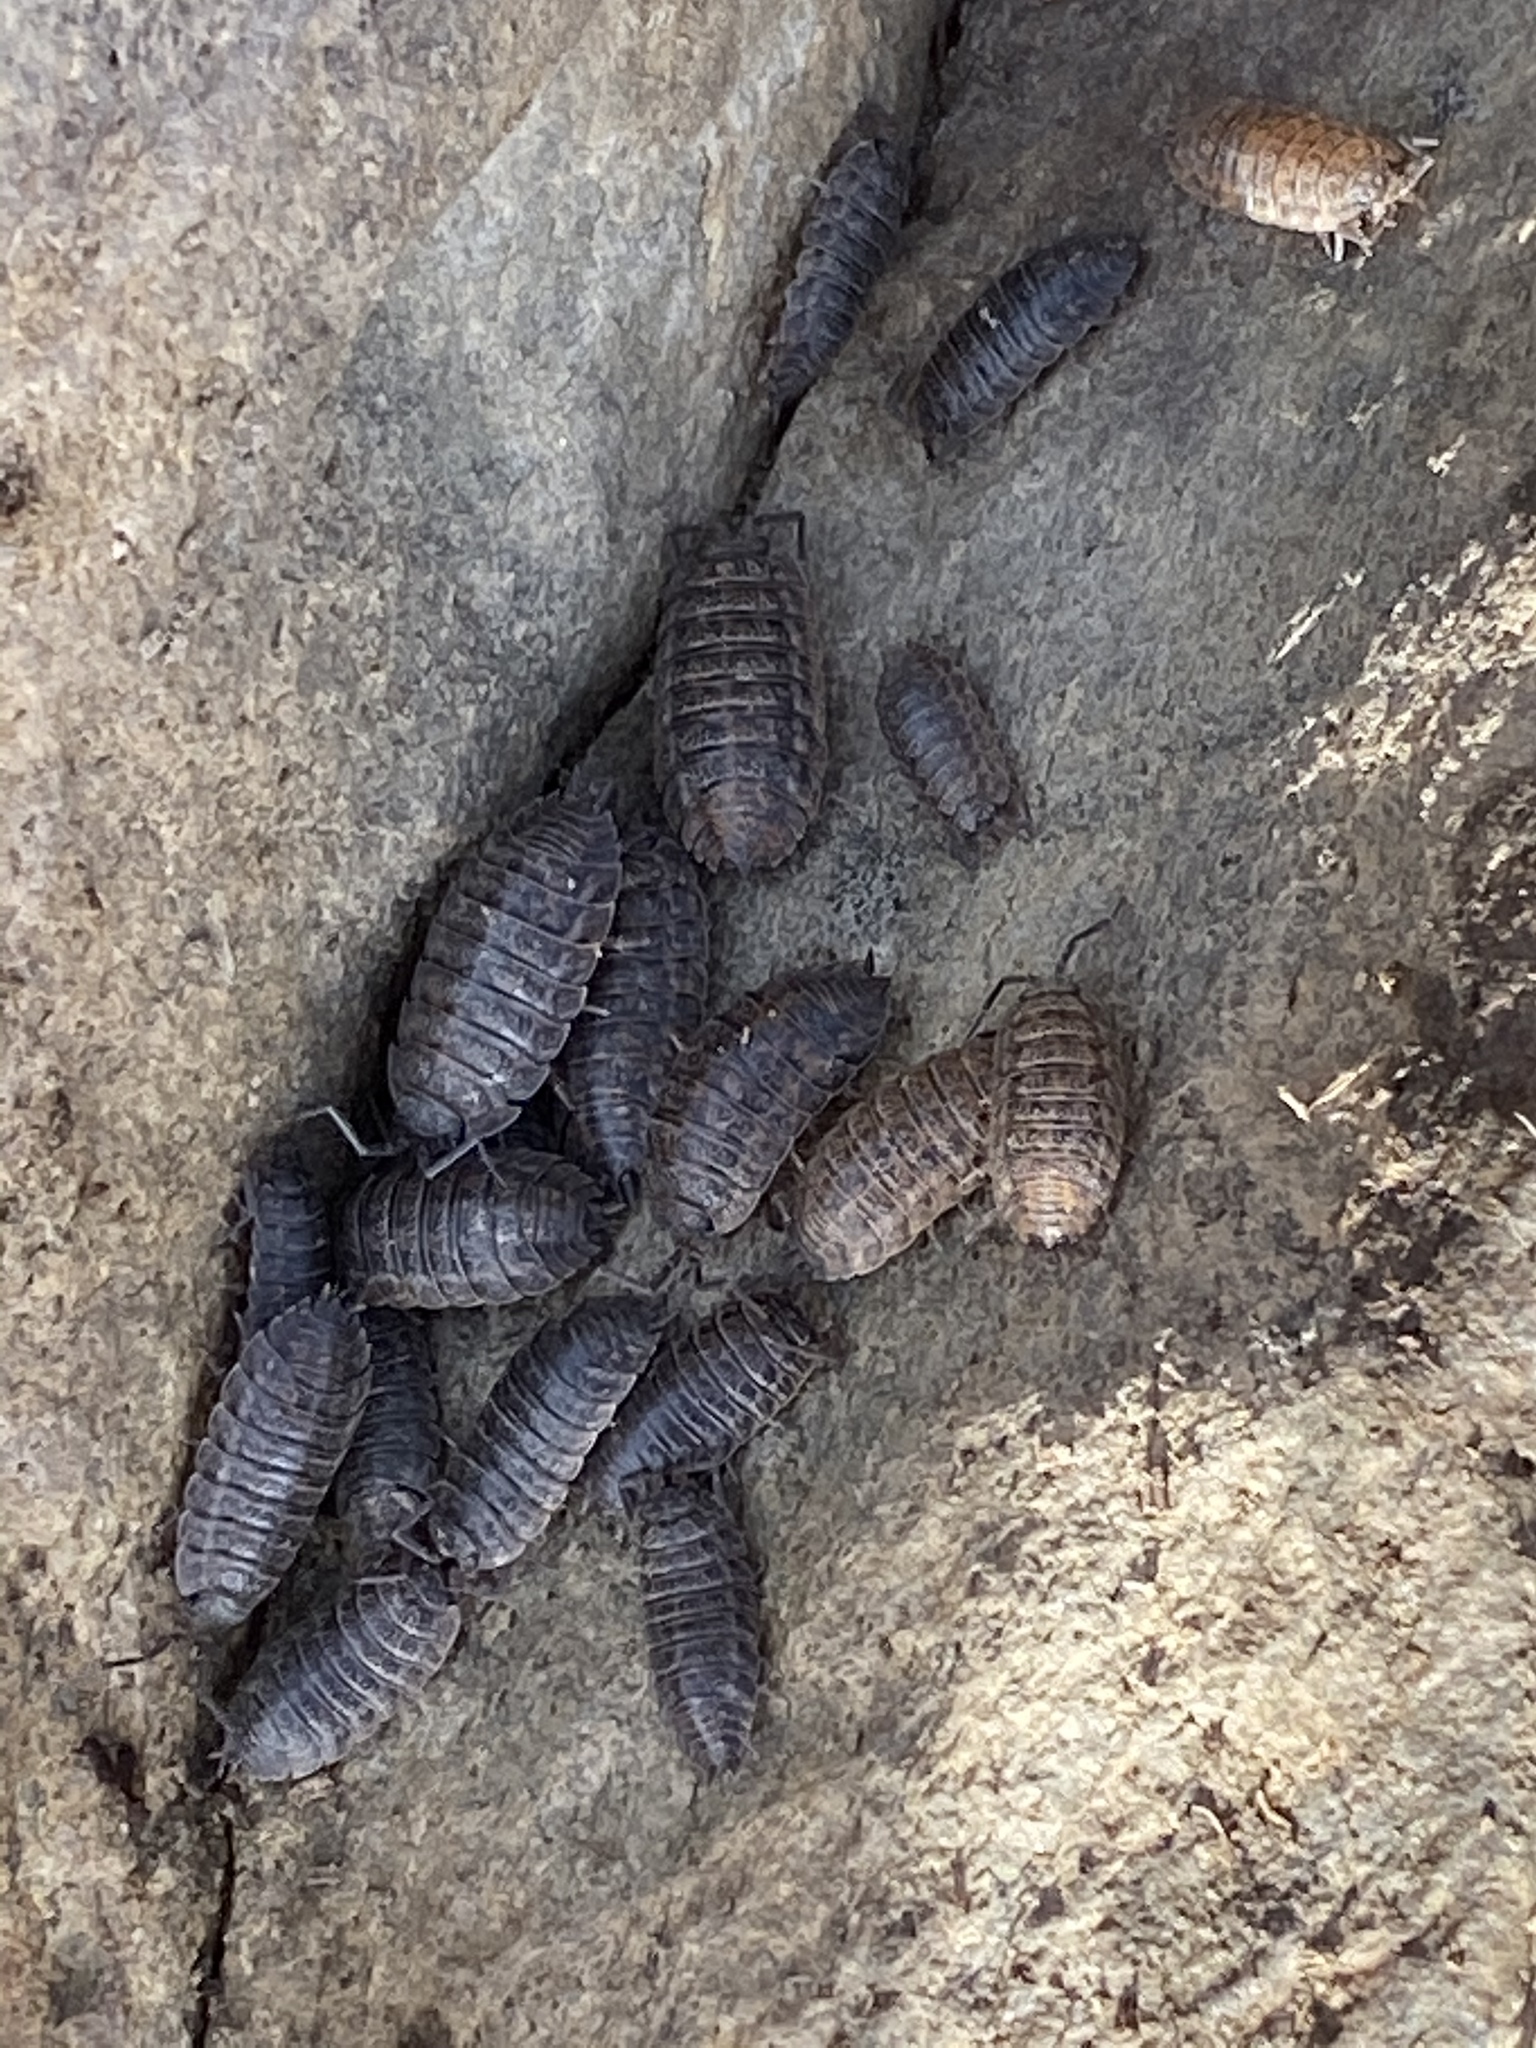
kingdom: Animalia
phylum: Arthropoda
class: Malacostraca
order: Isopoda
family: Trachelipodidae
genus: Trachelipus
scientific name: Trachelipus rathkii
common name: Isopod
